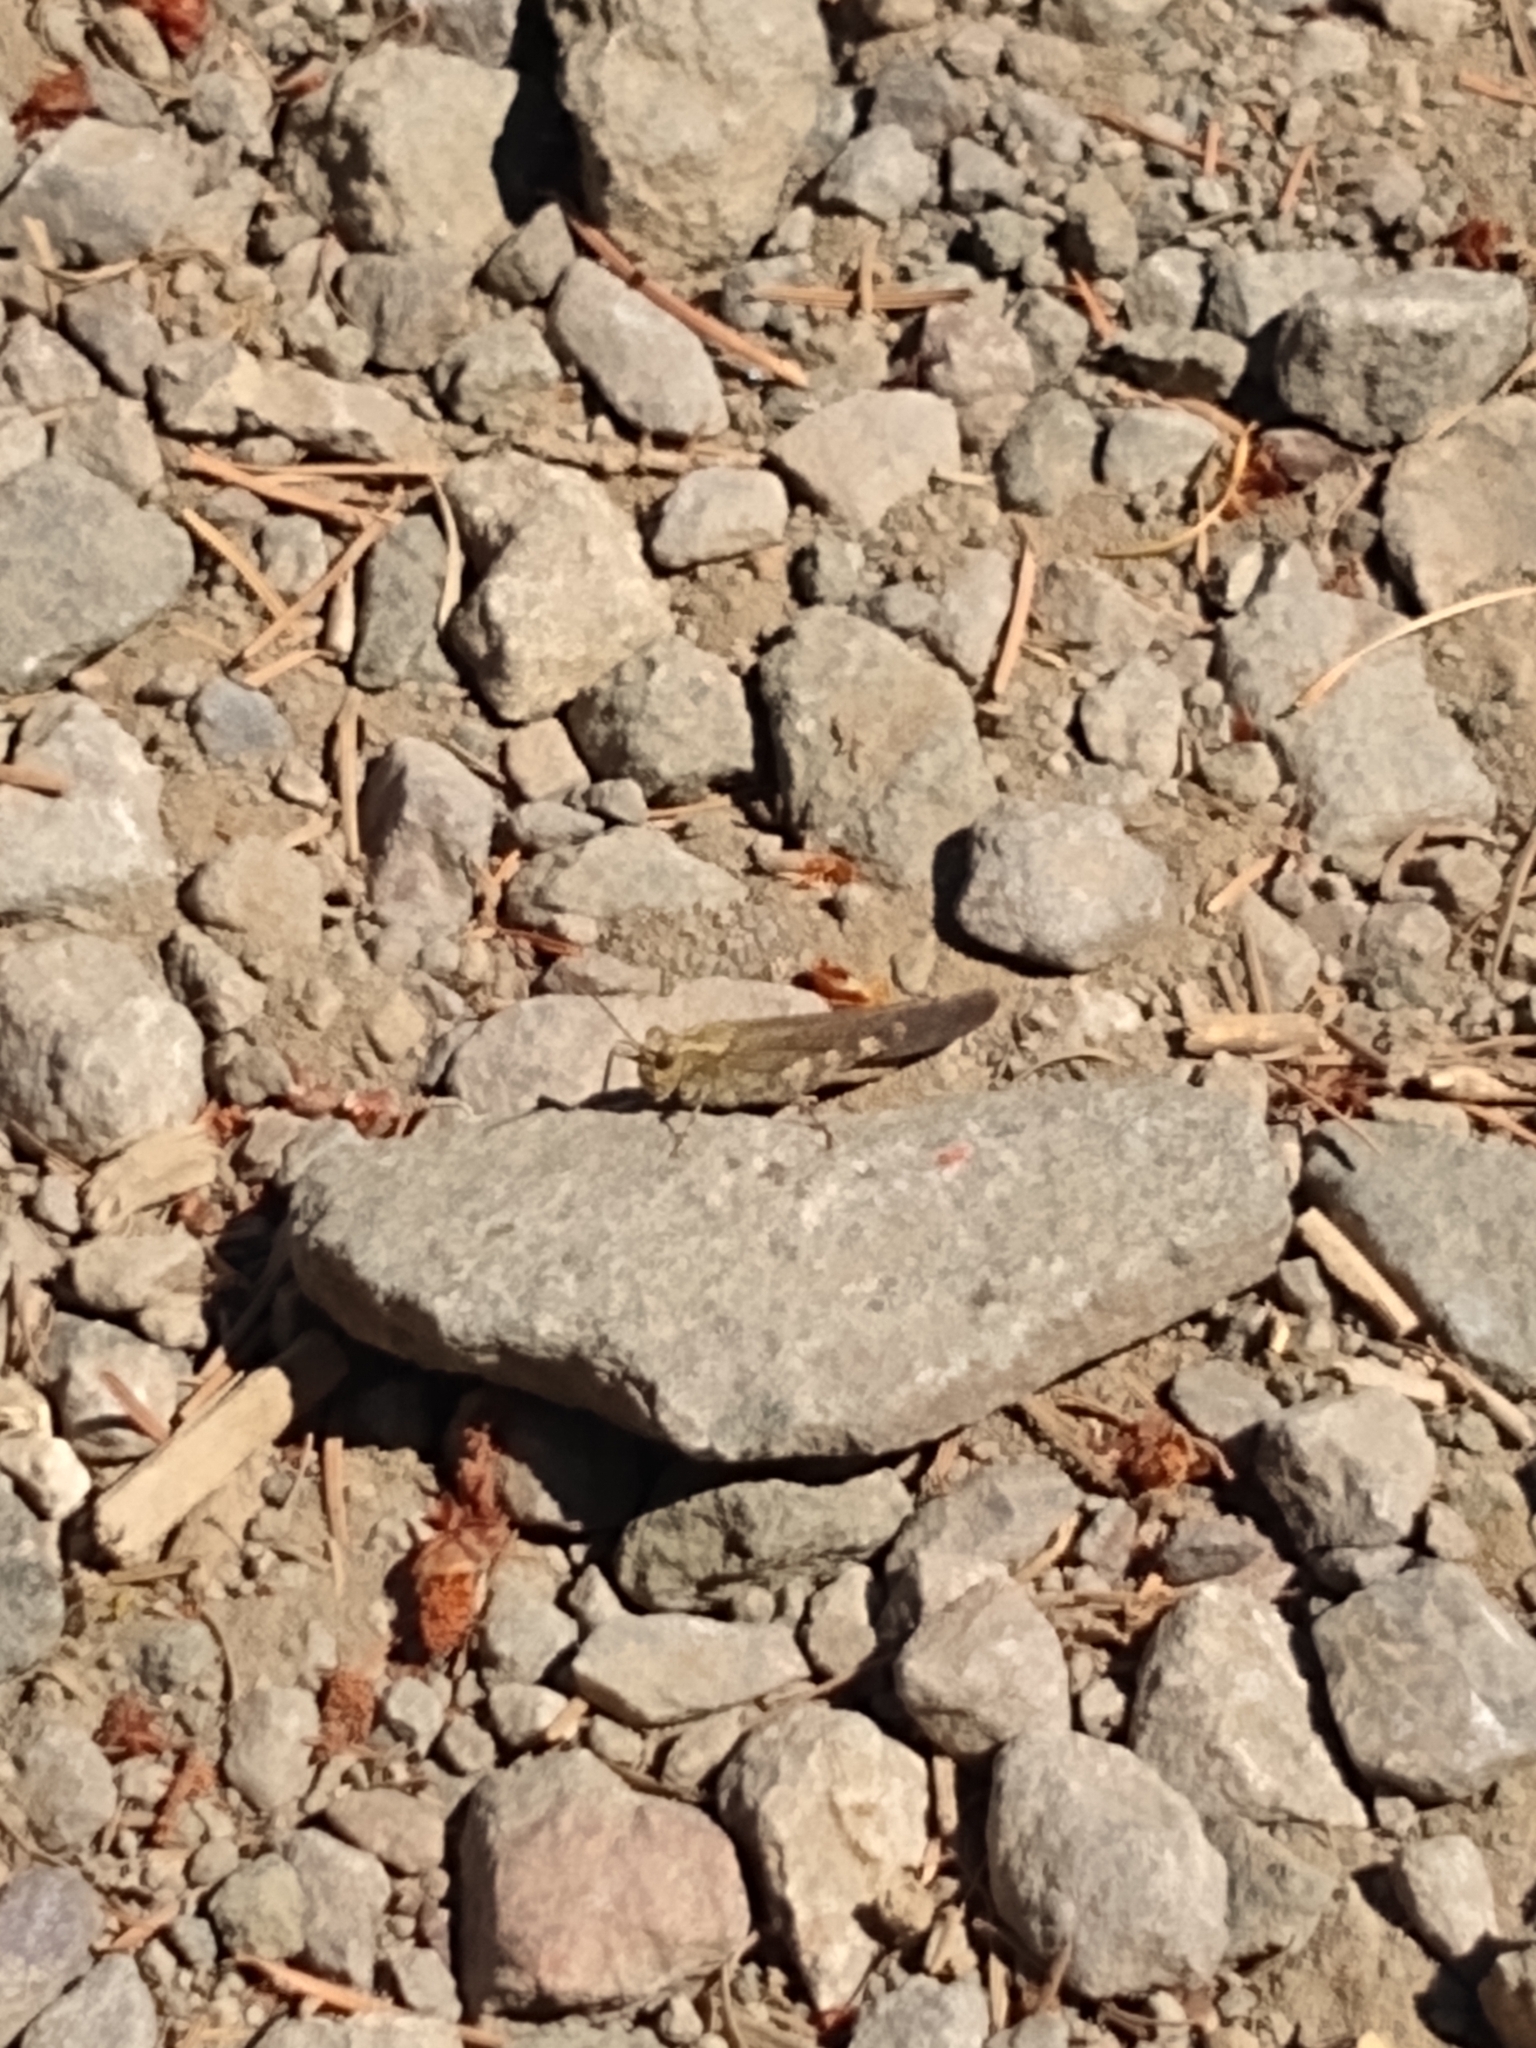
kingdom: Animalia
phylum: Arthropoda
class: Insecta
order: Orthoptera
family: Acrididae
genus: Trimerotropis
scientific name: Trimerotropis verruculata
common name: Crackling forest grasshopper
